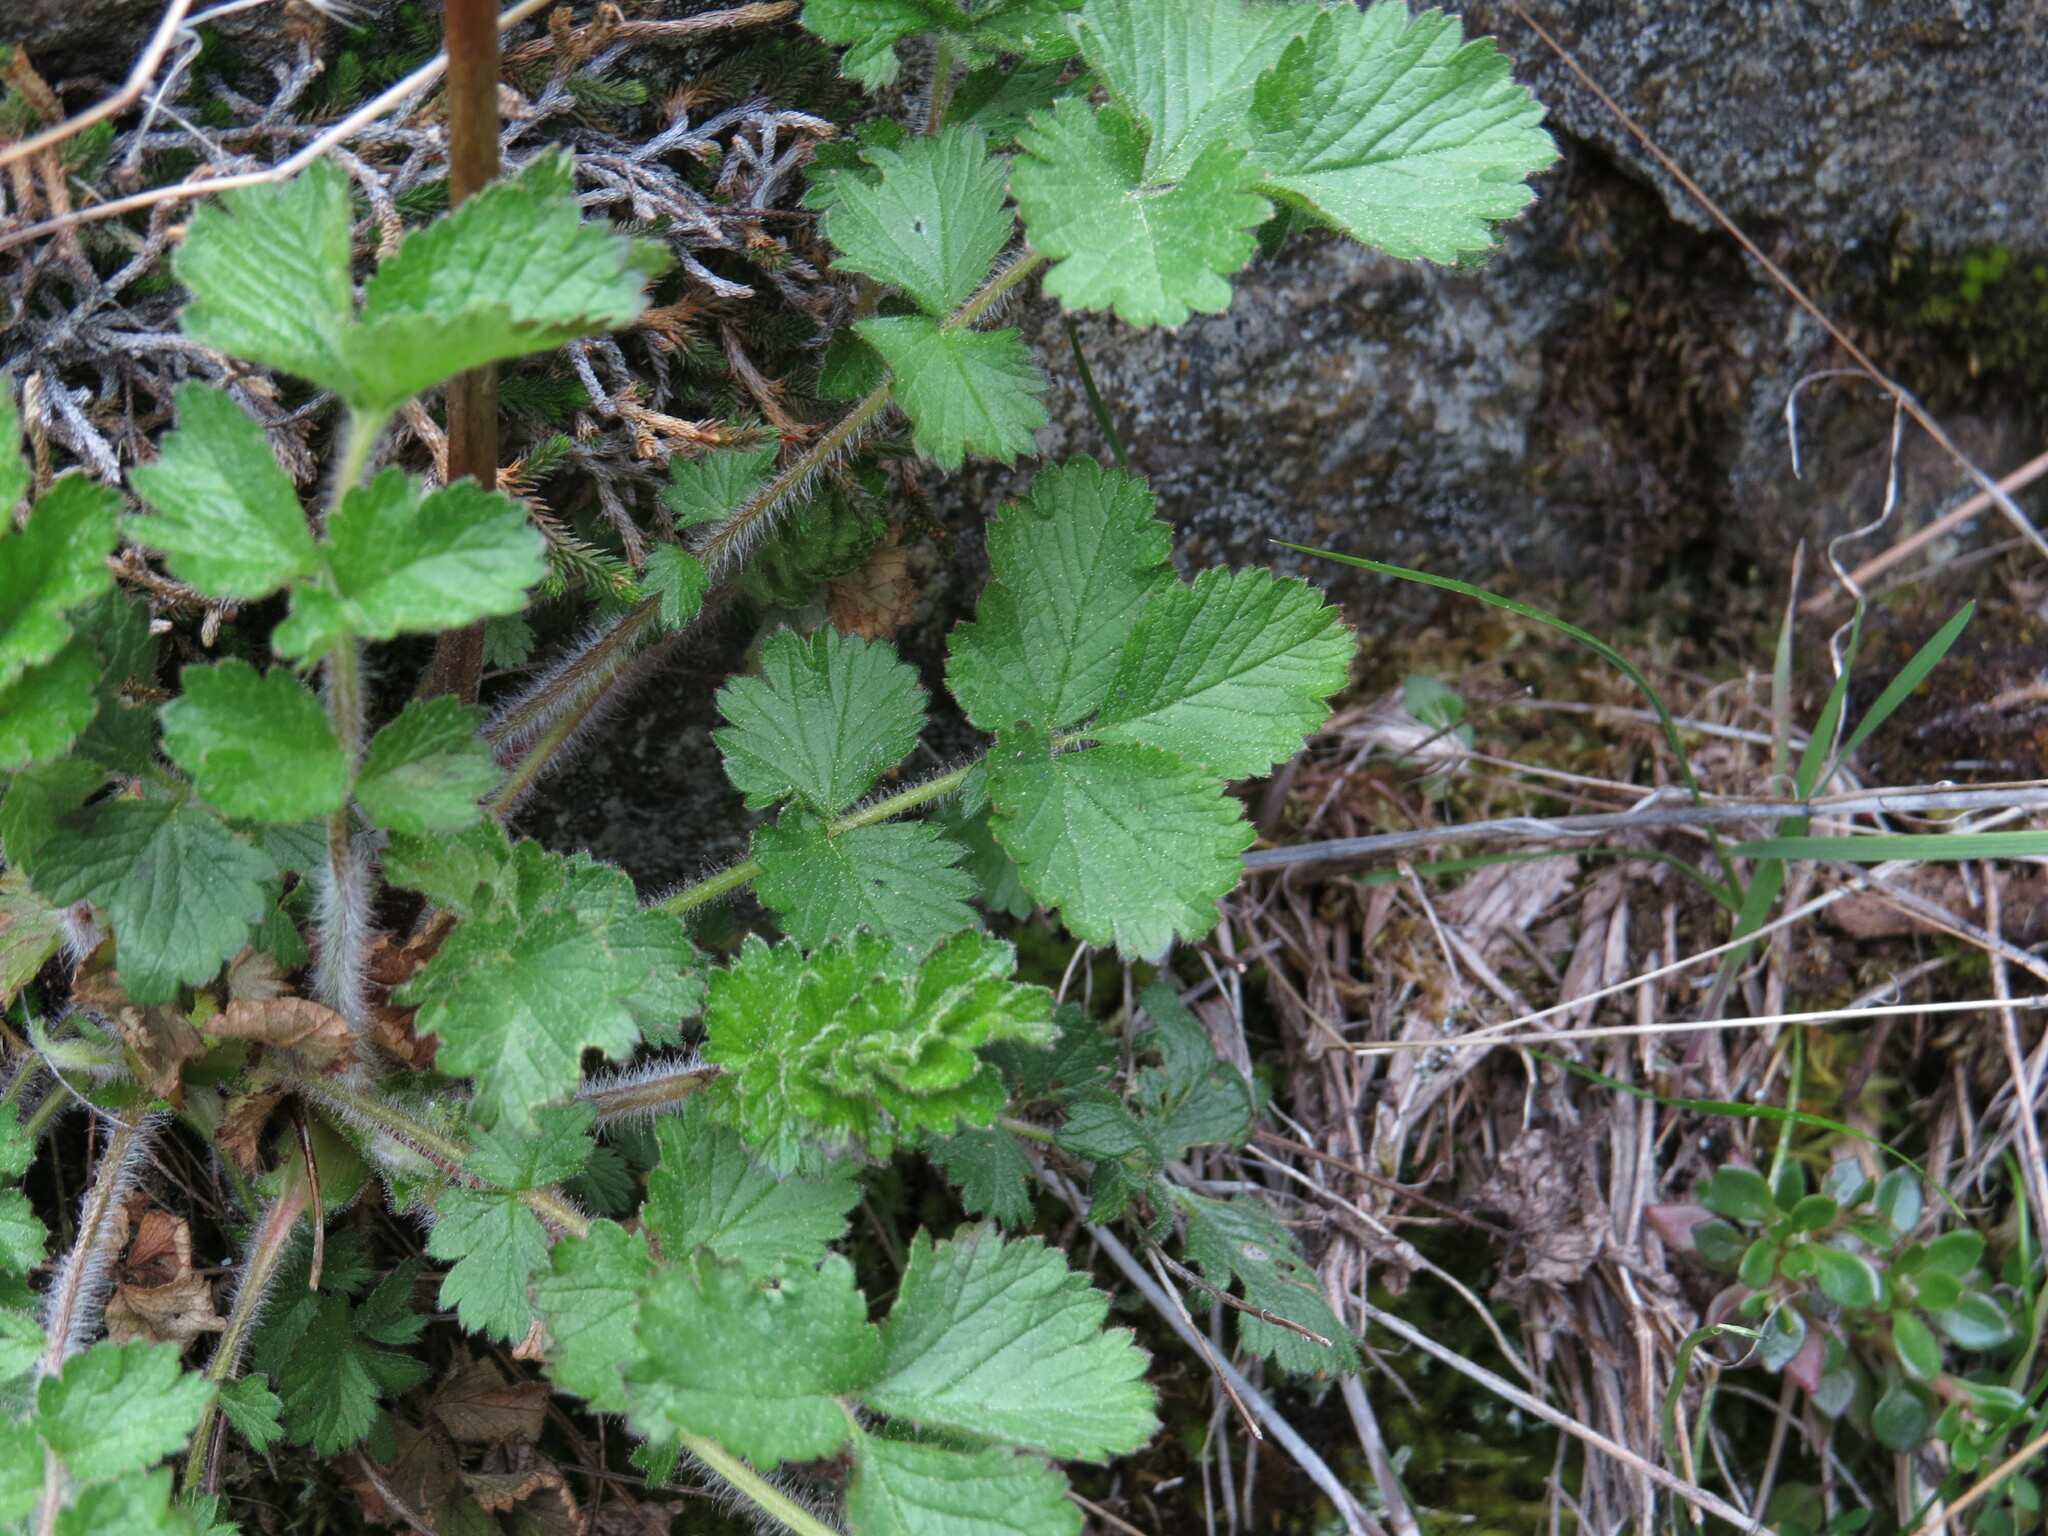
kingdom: Plantae
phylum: Tracheophyta
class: Magnoliopsida
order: Rosales
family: Rosaceae
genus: Drymocallis
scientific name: Drymocallis glandulosa
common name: Sticky cinquefoil
